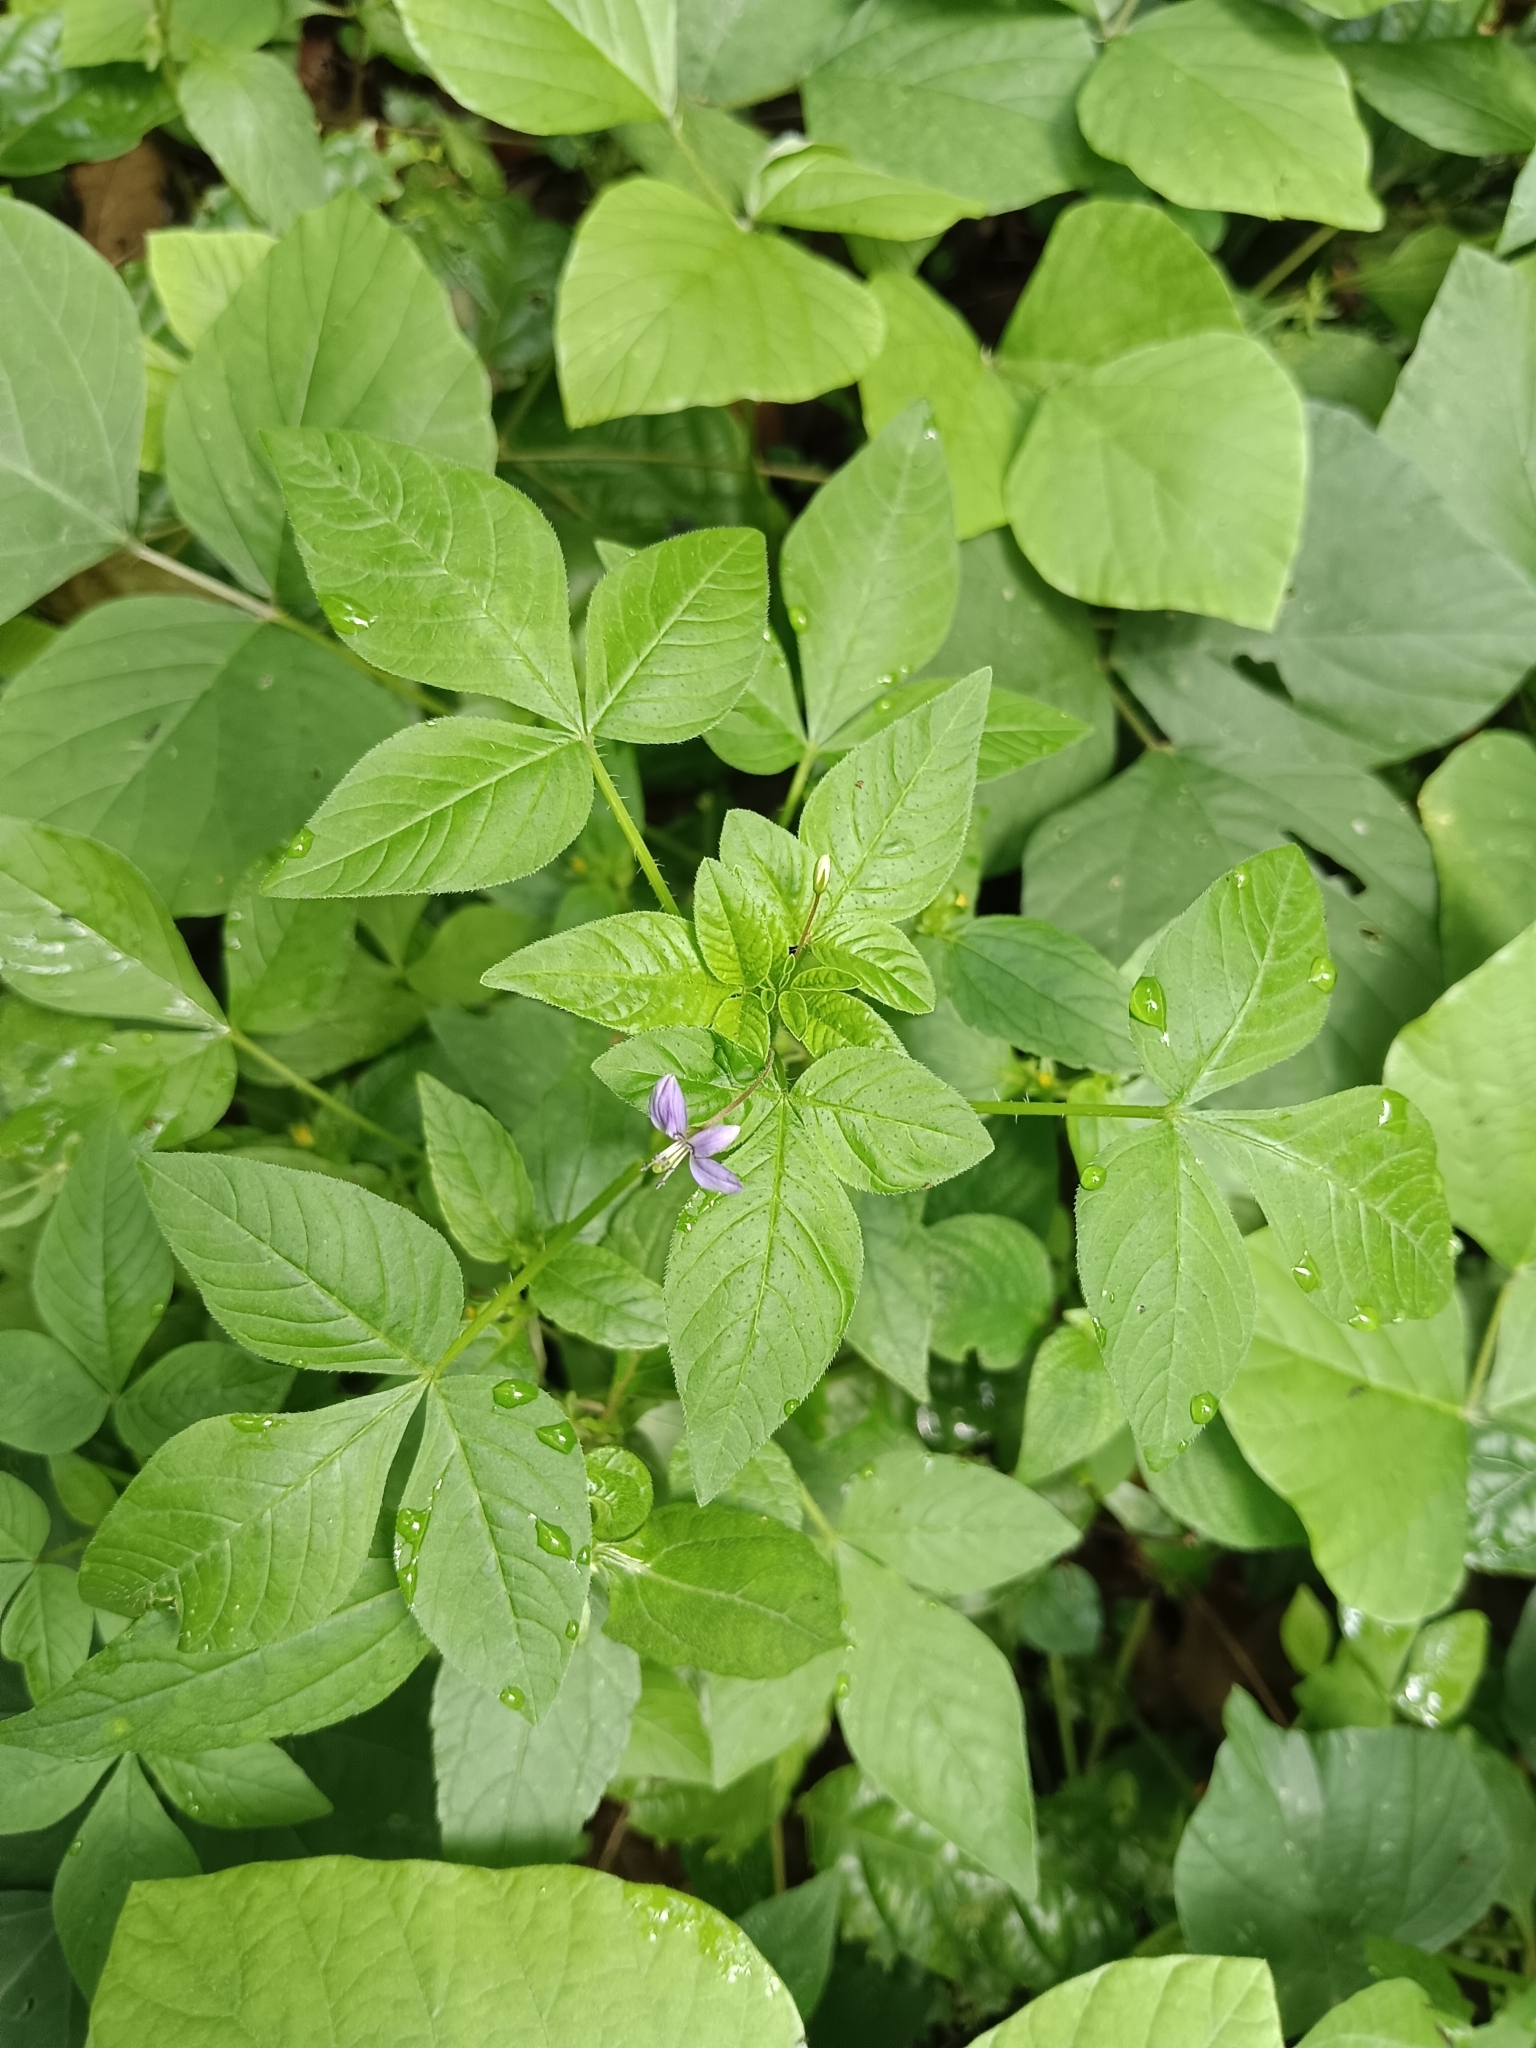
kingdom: Plantae
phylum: Tracheophyta
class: Magnoliopsida
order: Brassicales
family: Cleomaceae
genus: Sieruela
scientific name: Sieruela rutidosperma
